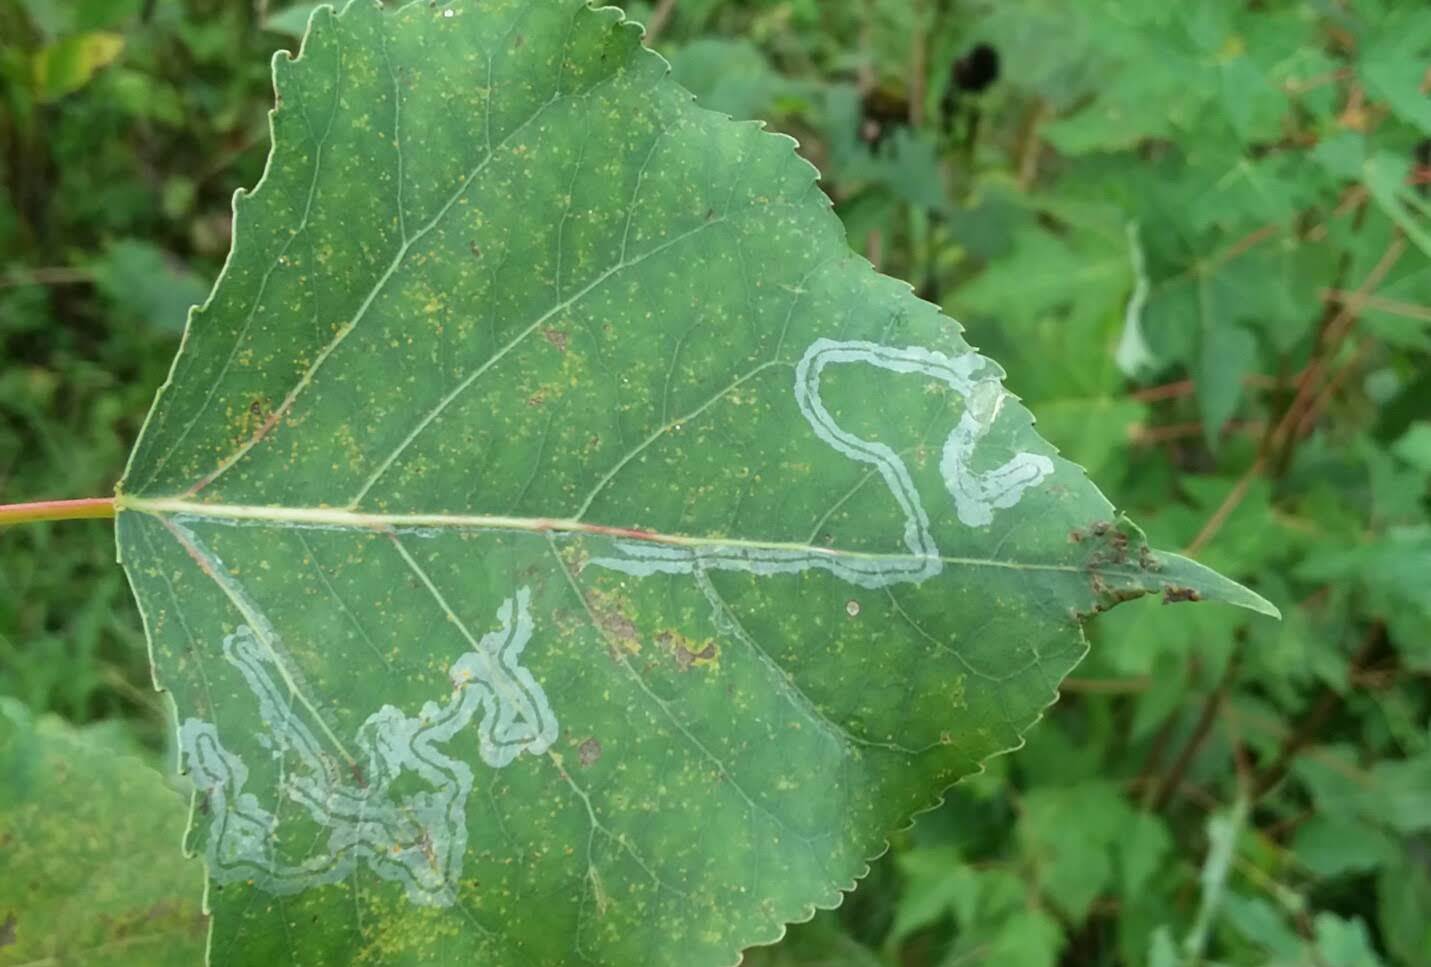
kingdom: Animalia
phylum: Arthropoda
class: Insecta
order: Lepidoptera
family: Gracillariidae
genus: Phyllocnistis
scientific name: Phyllocnistis populiella
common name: Aspen serpentine leafminer moth
